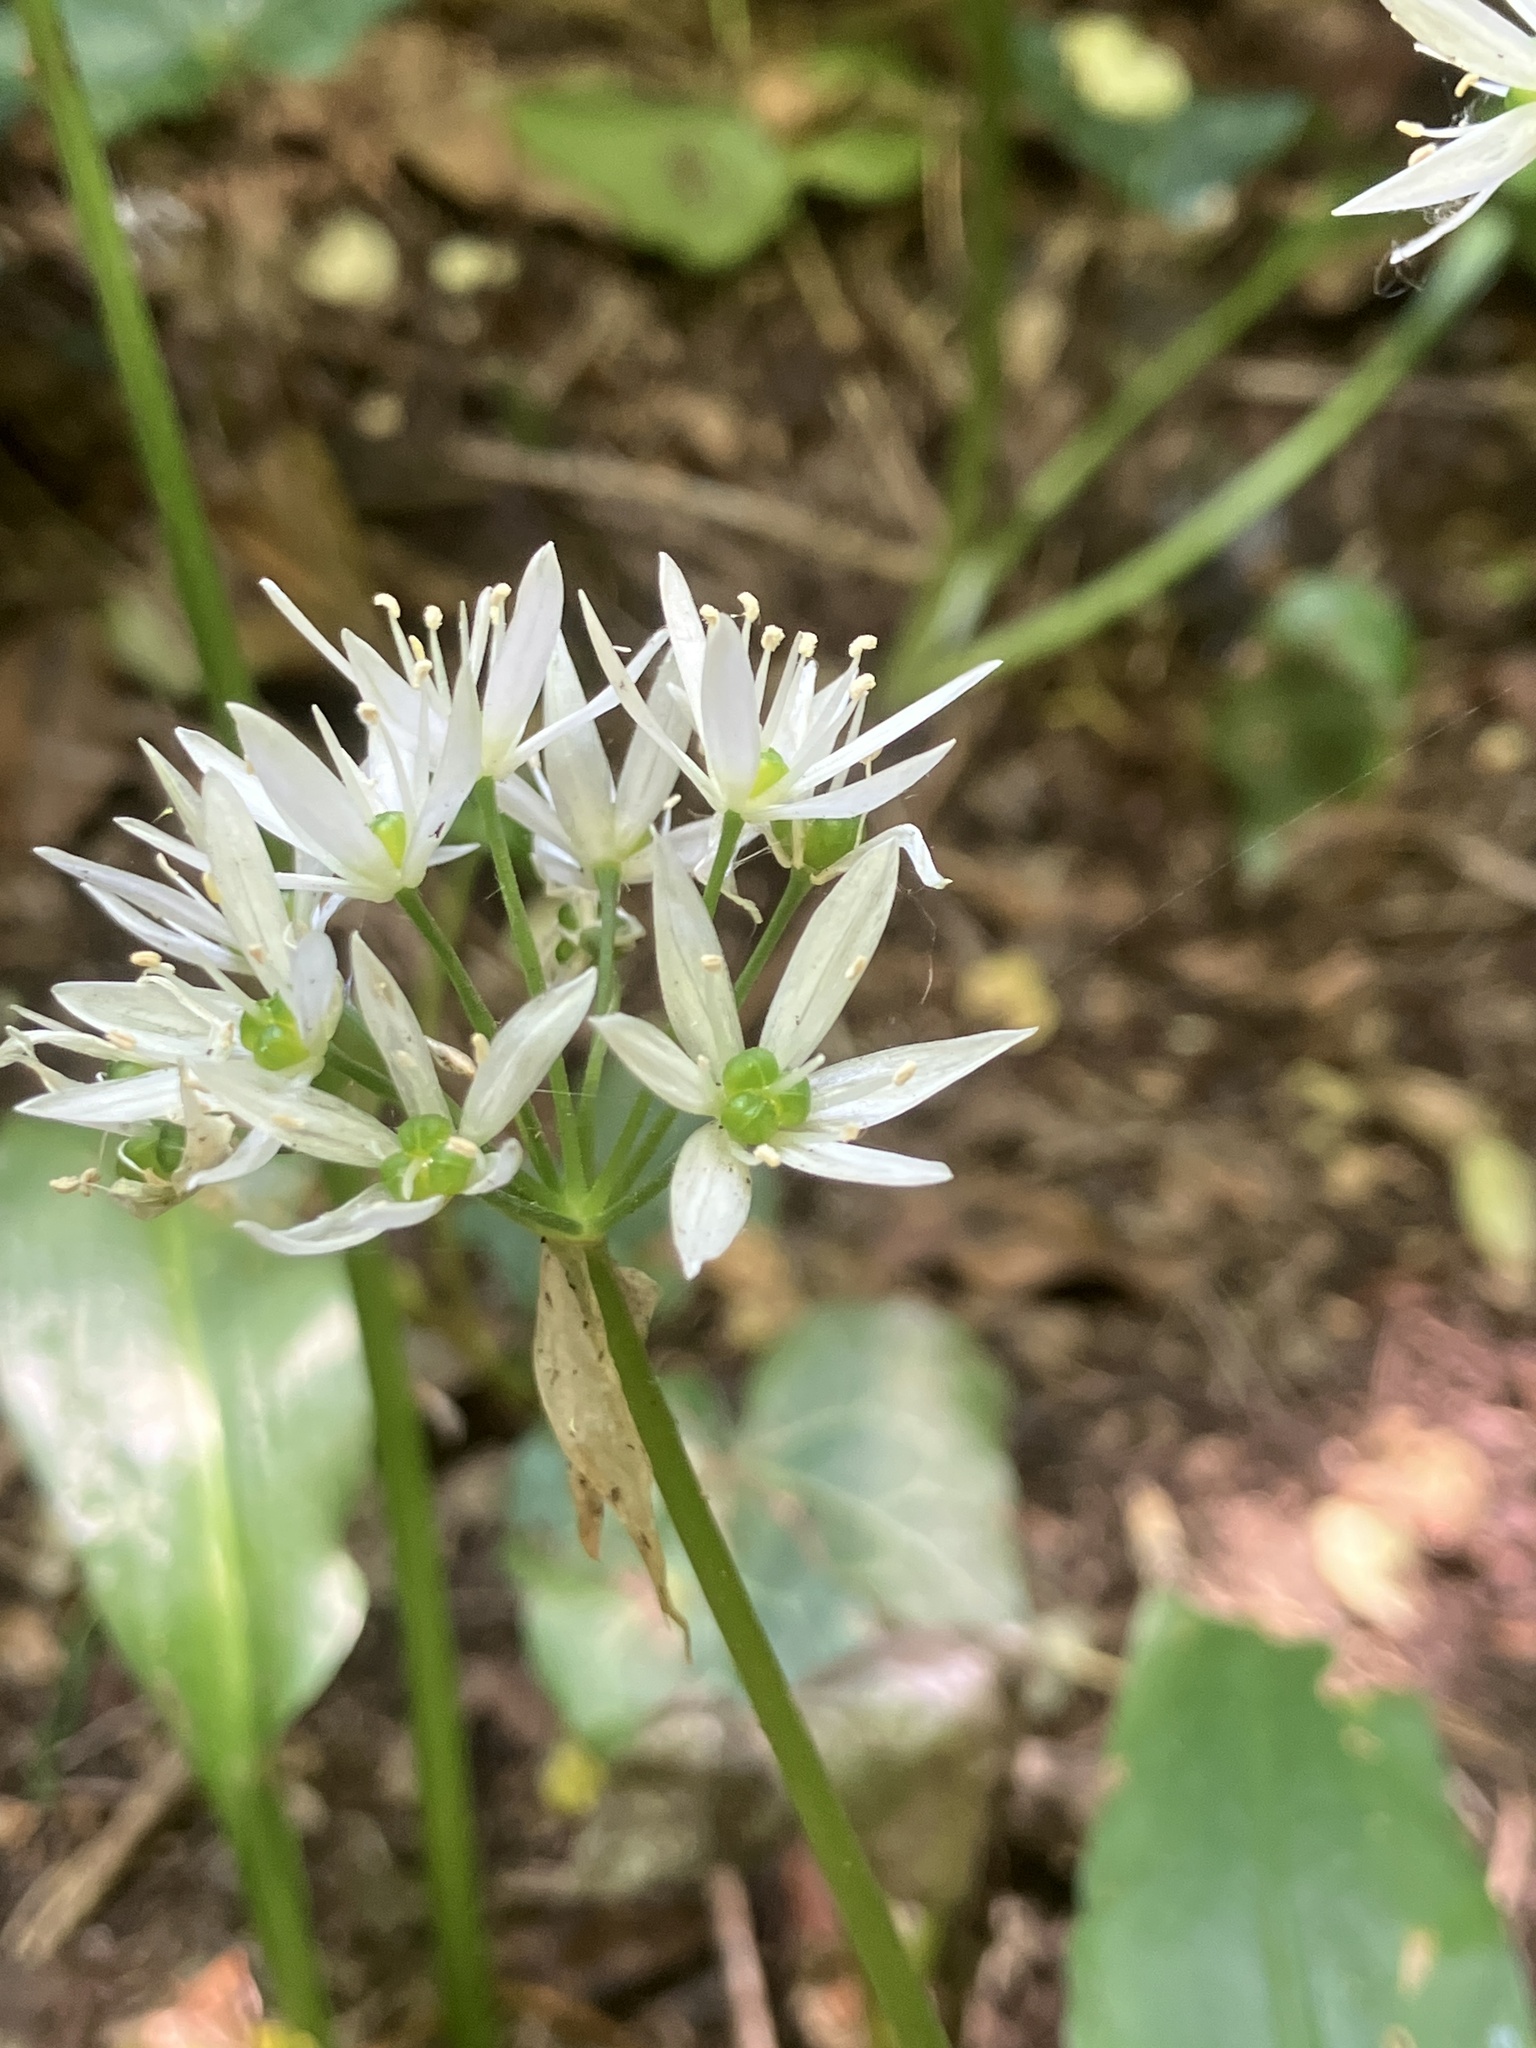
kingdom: Plantae
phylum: Tracheophyta
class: Liliopsida
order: Asparagales
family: Amaryllidaceae
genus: Allium
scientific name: Allium ursinum
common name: Ramsons
